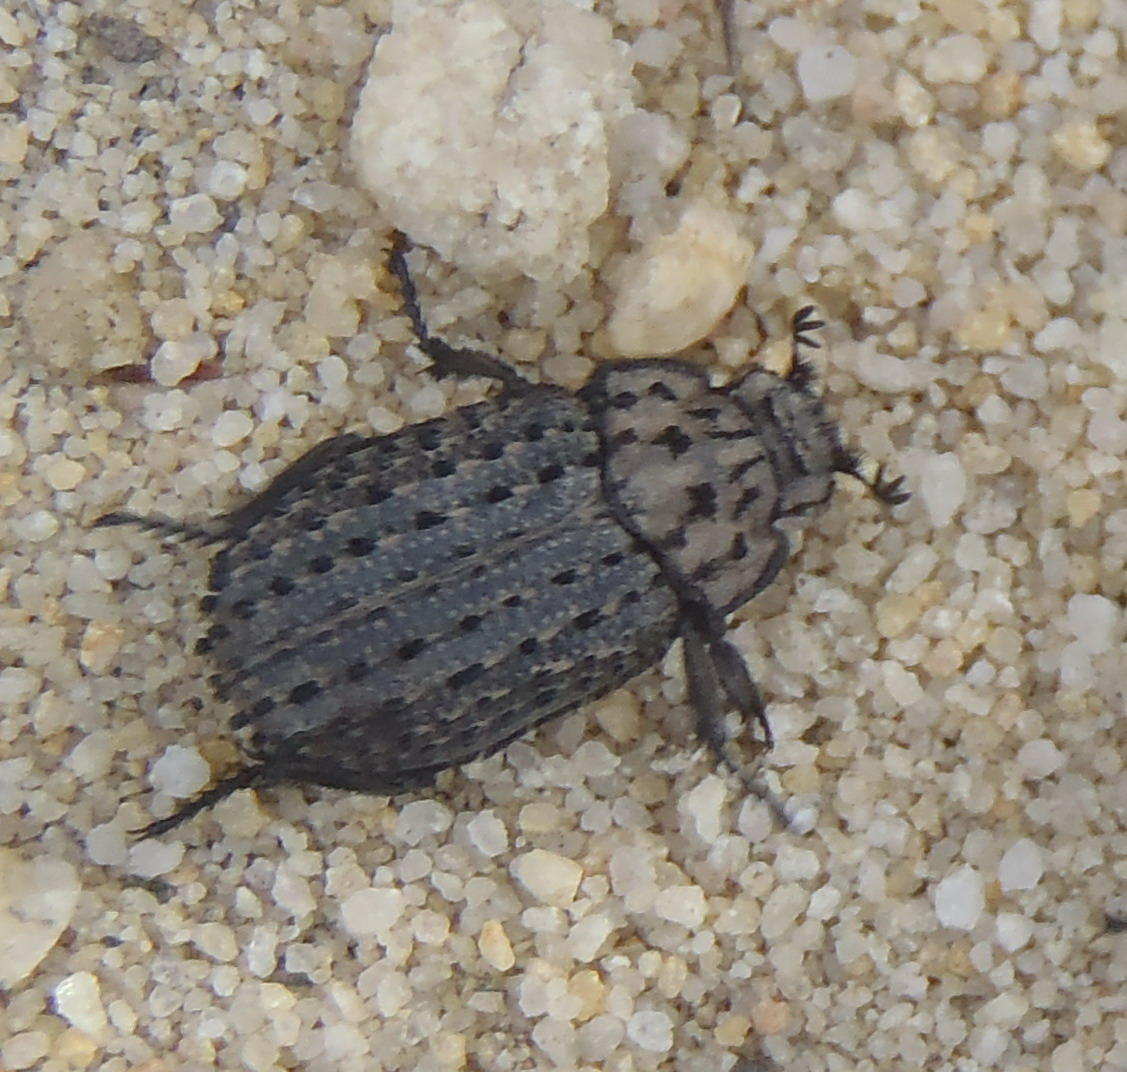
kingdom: Animalia
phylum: Arthropoda
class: Insecta
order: Coleoptera
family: Trogidae
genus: Phoberus
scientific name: Phoberus fascicularis
